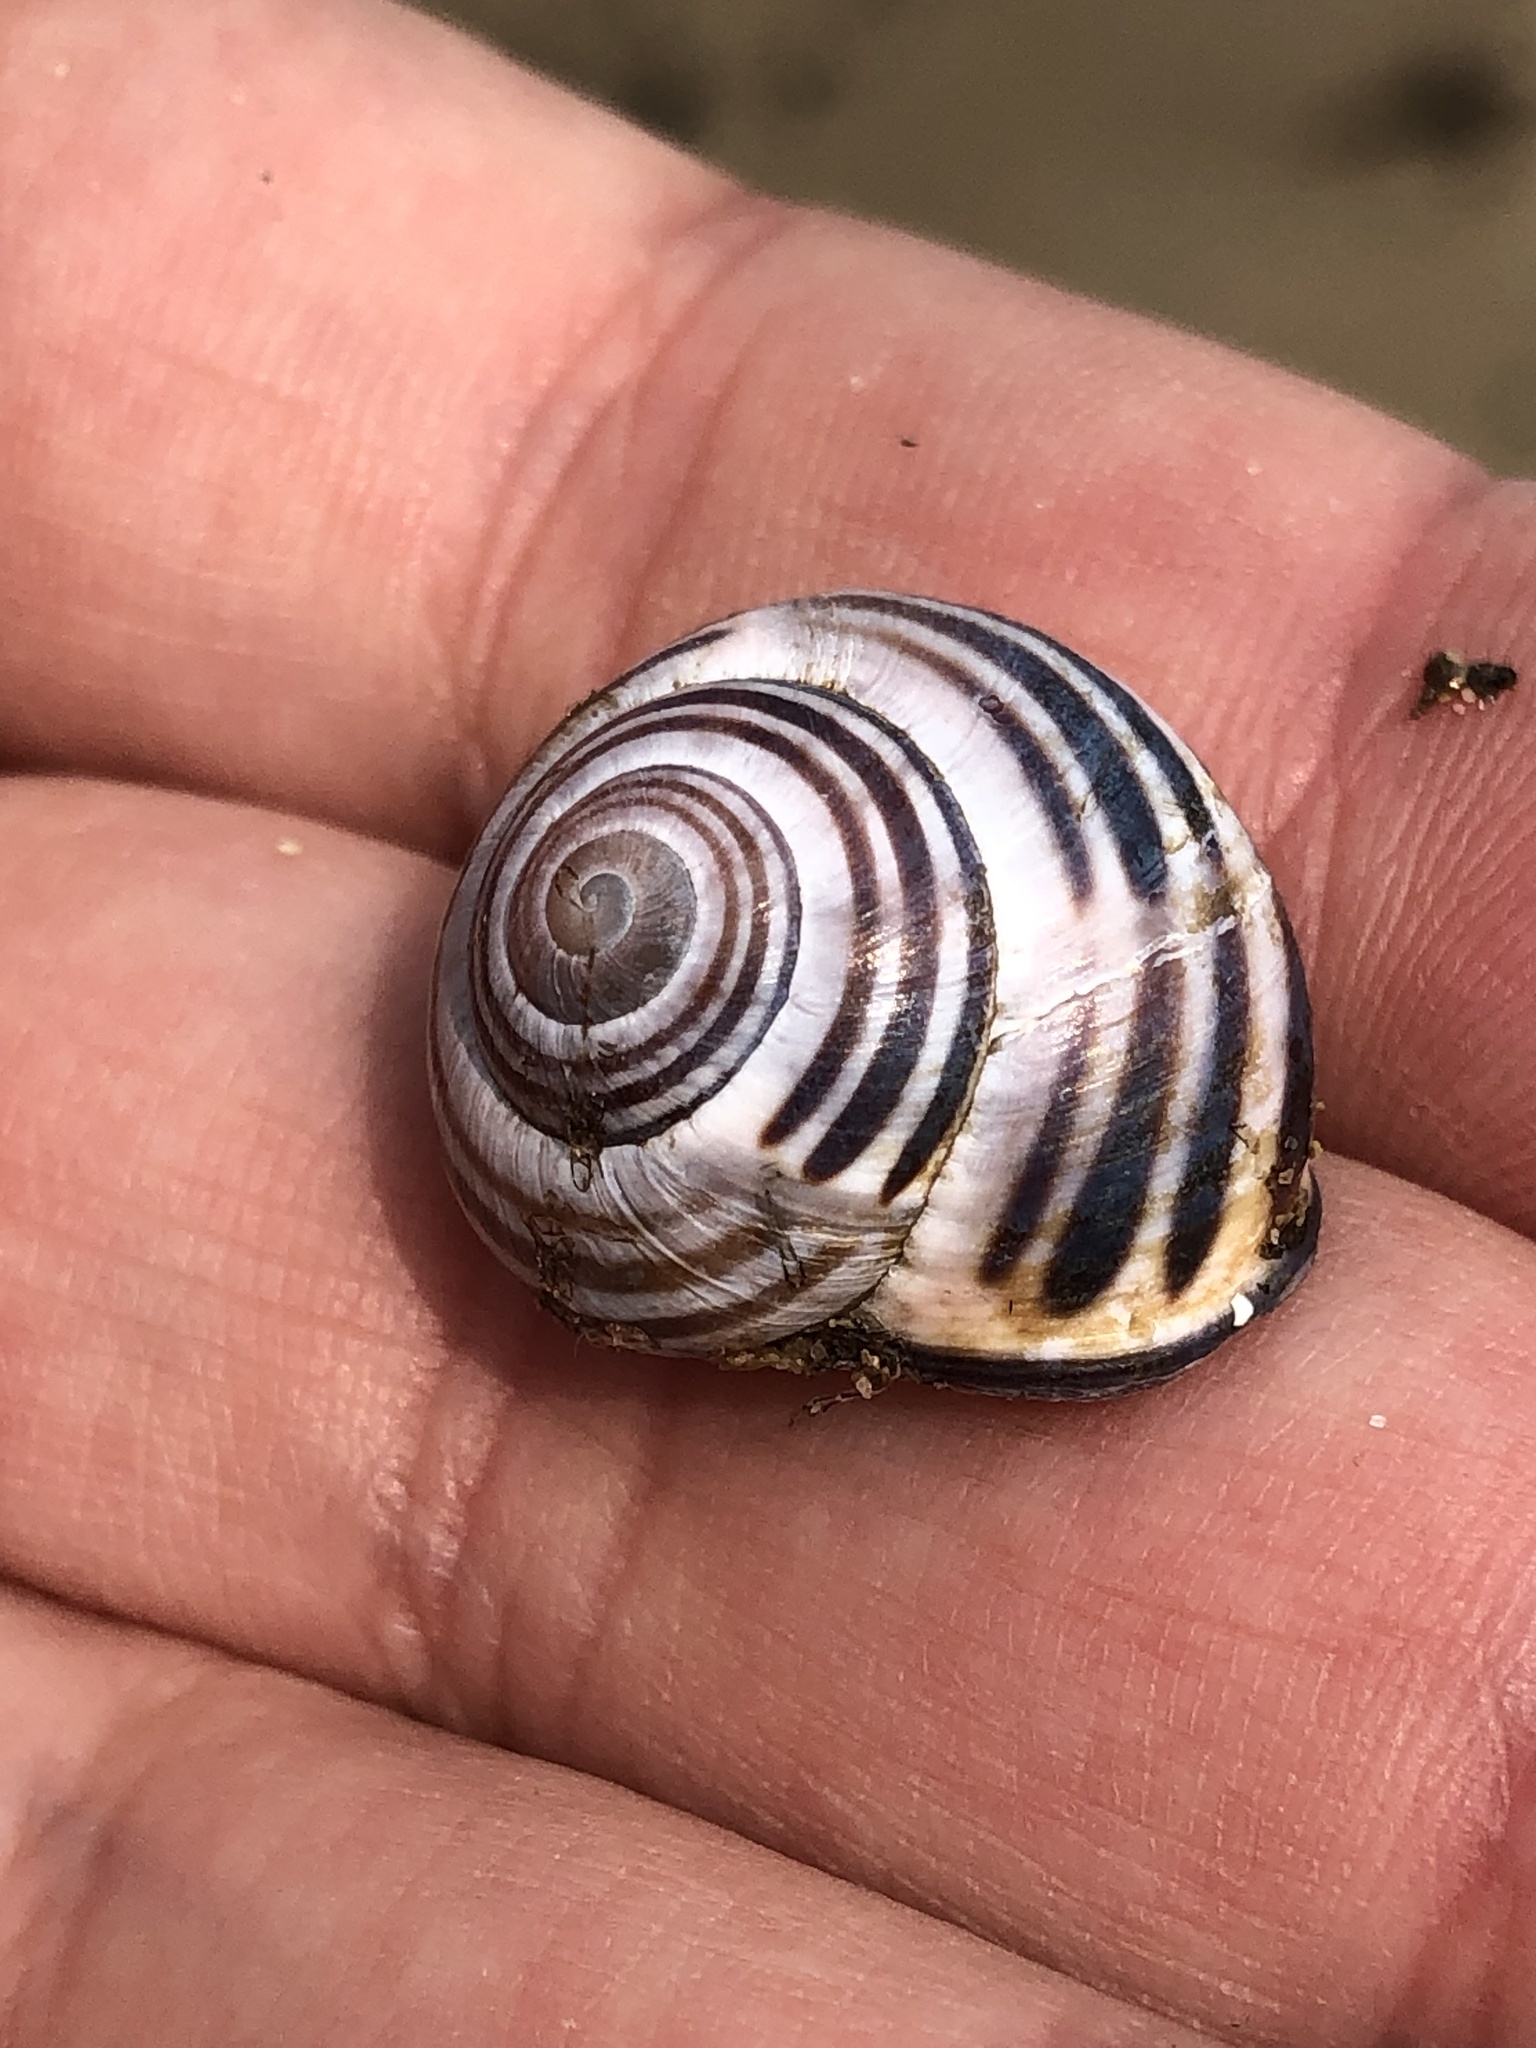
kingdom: Animalia
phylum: Mollusca
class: Gastropoda
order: Stylommatophora
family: Helicidae
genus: Cepaea
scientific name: Cepaea nemoralis
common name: Grovesnail
